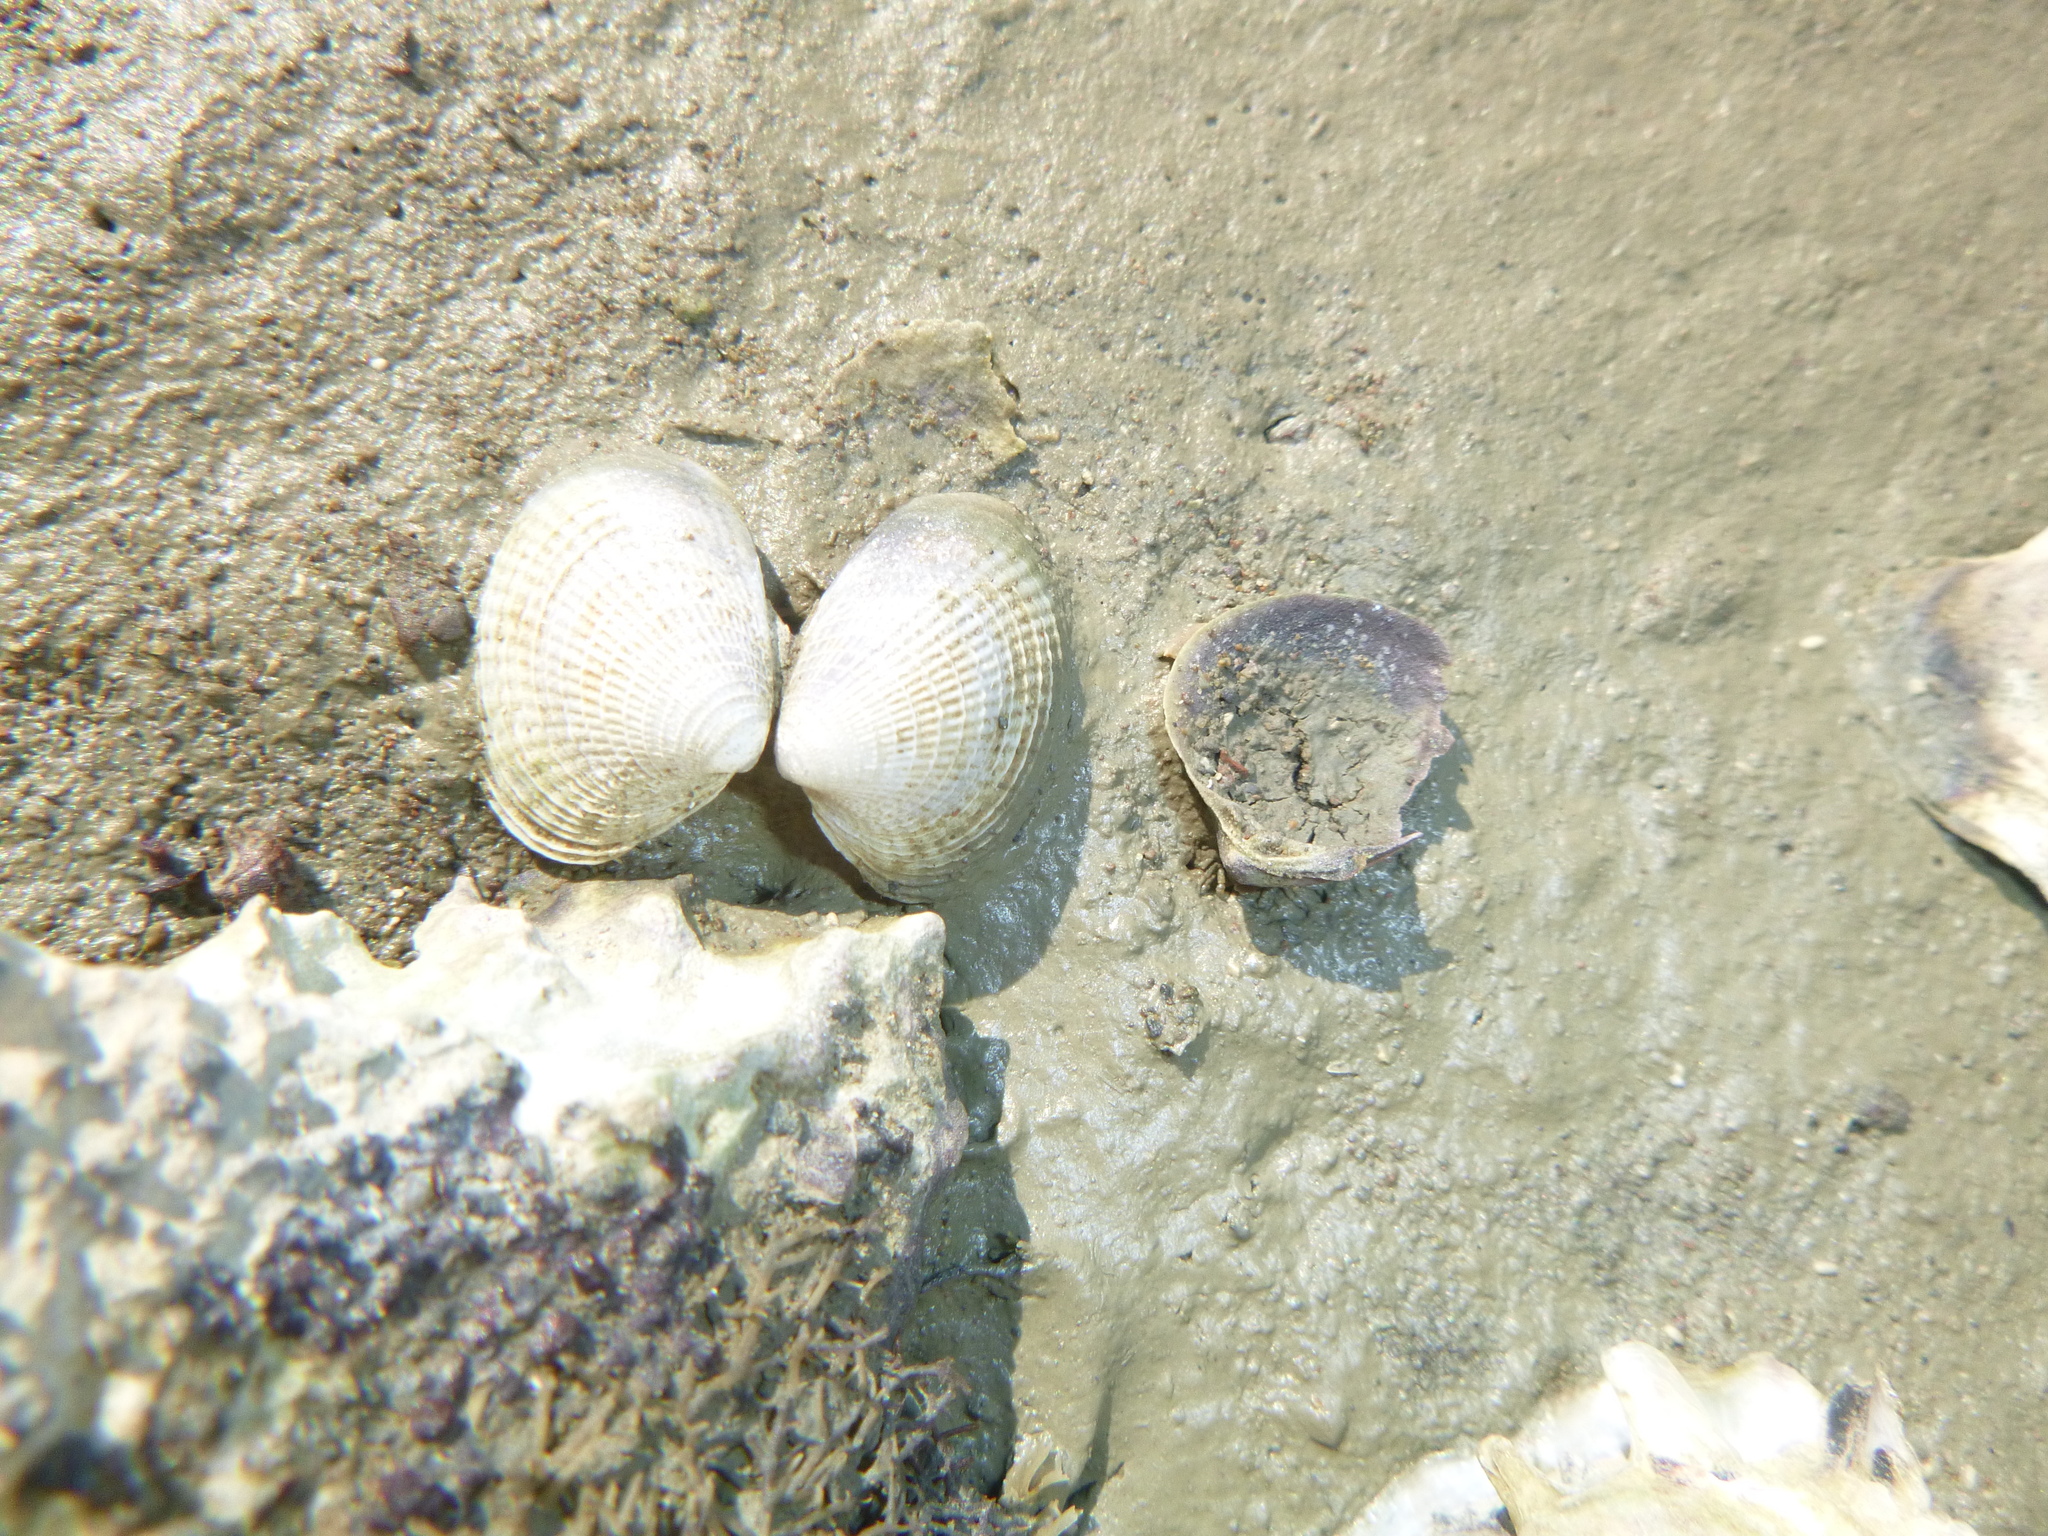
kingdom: Animalia
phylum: Mollusca
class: Bivalvia
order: Venerida
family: Veneridae
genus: Austrovenus
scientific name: Austrovenus stutchburyi
